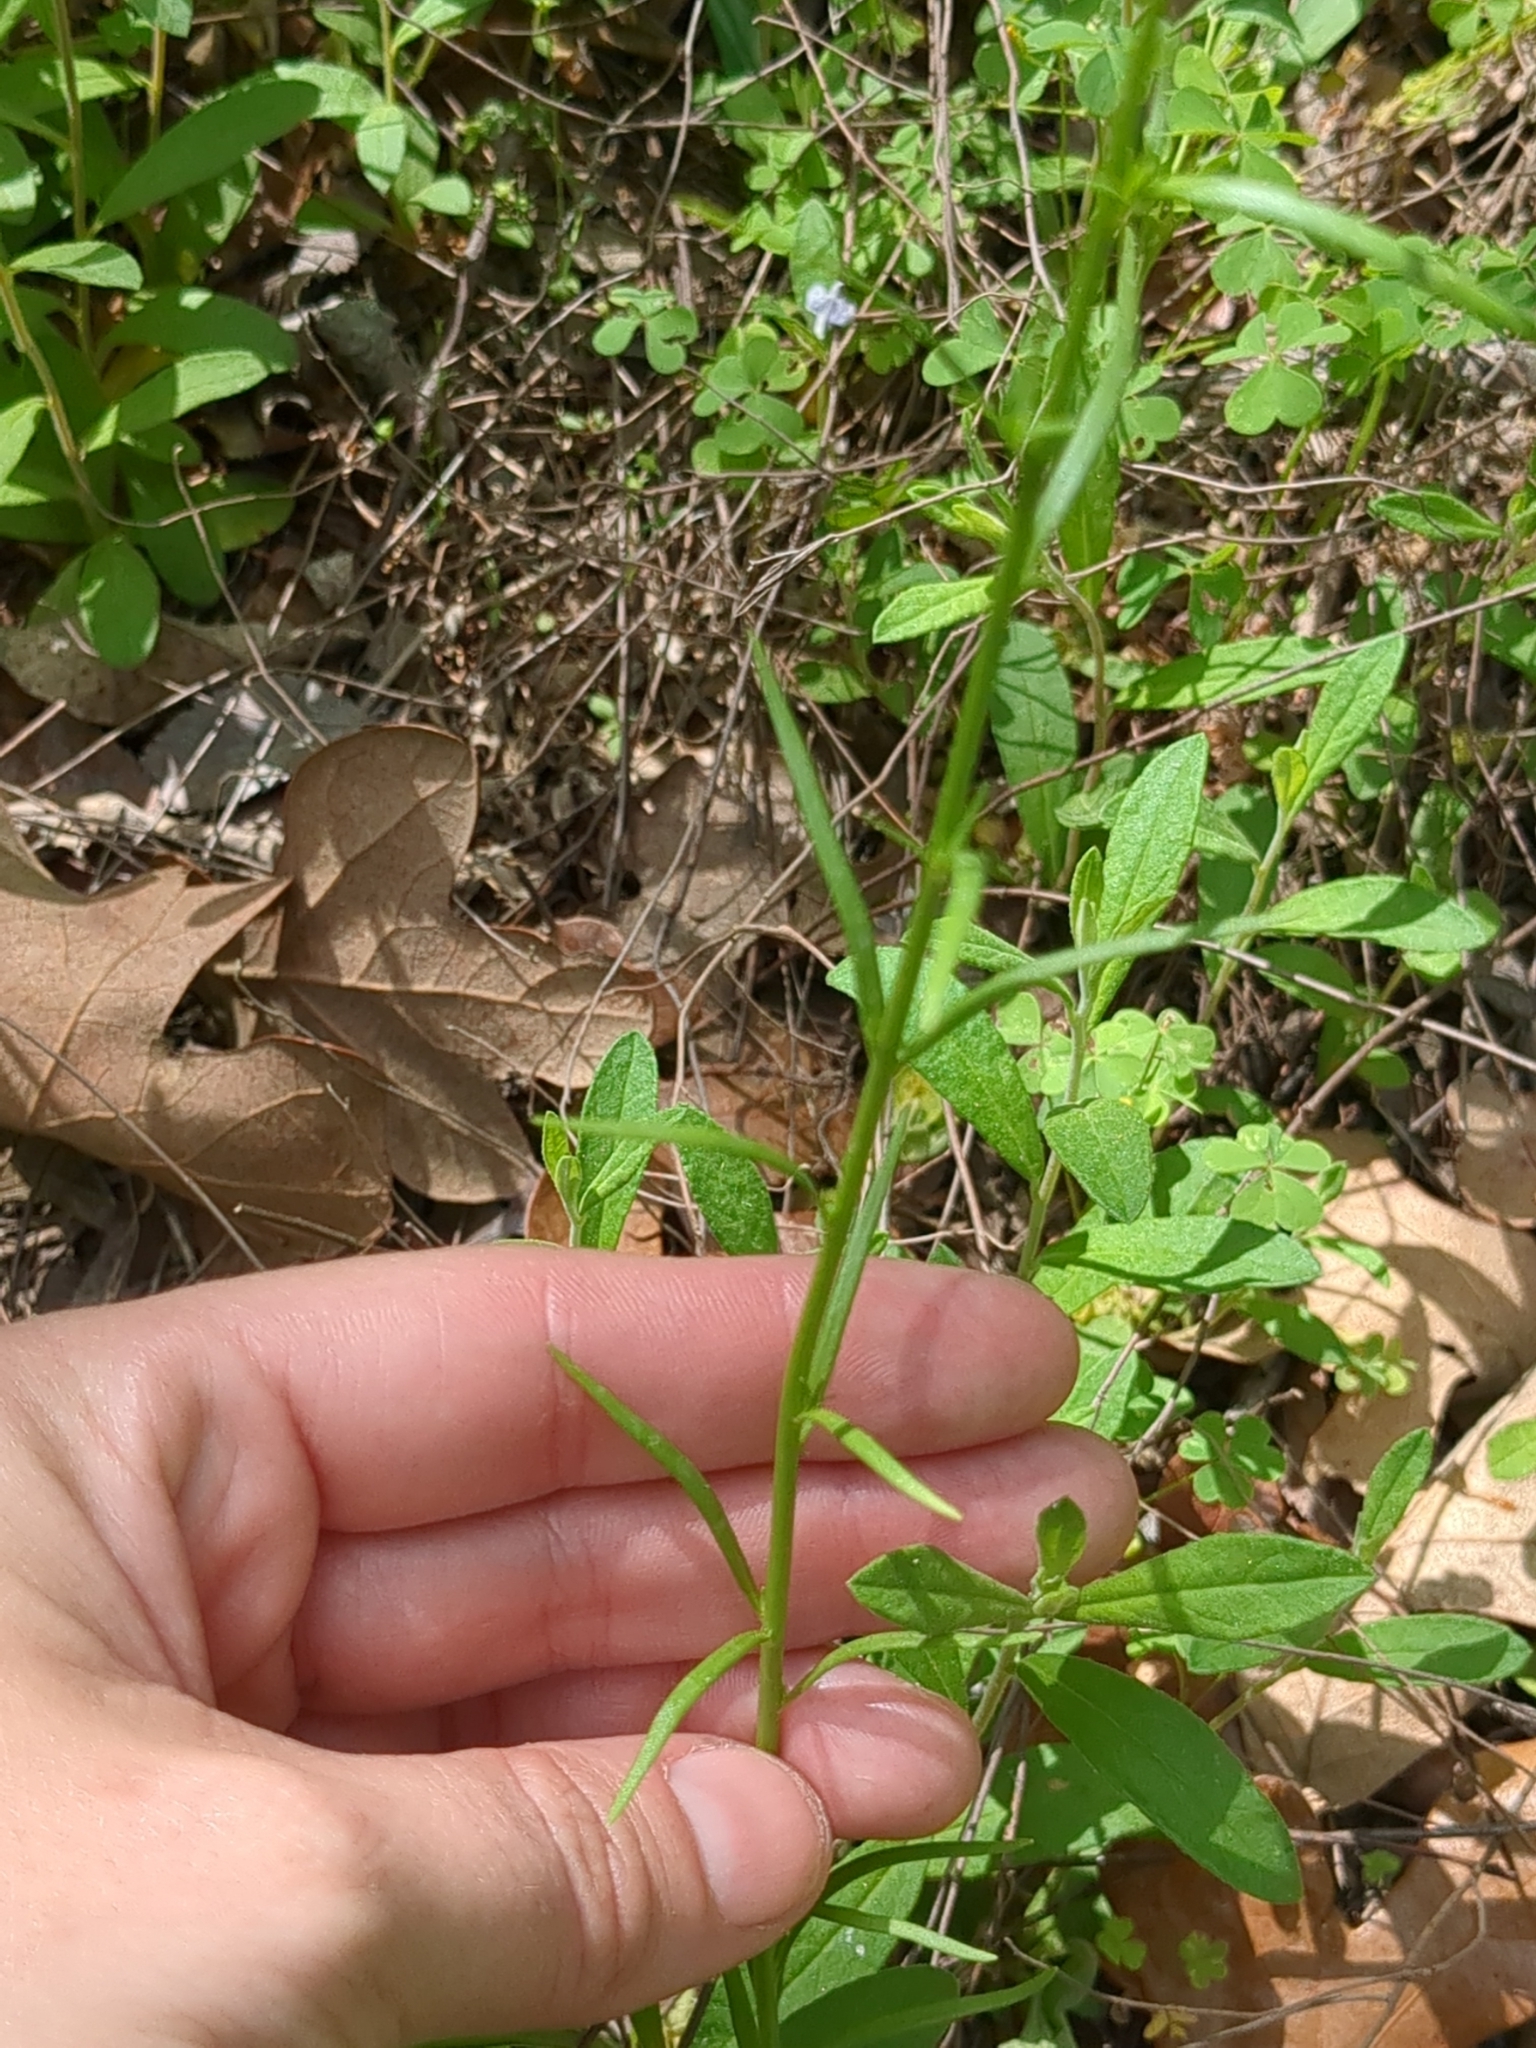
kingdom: Plantae
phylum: Tracheophyta
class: Magnoliopsida
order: Lamiales
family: Plantaginaceae
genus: Nuttallanthus
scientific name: Nuttallanthus texanus
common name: Texas toadflax
